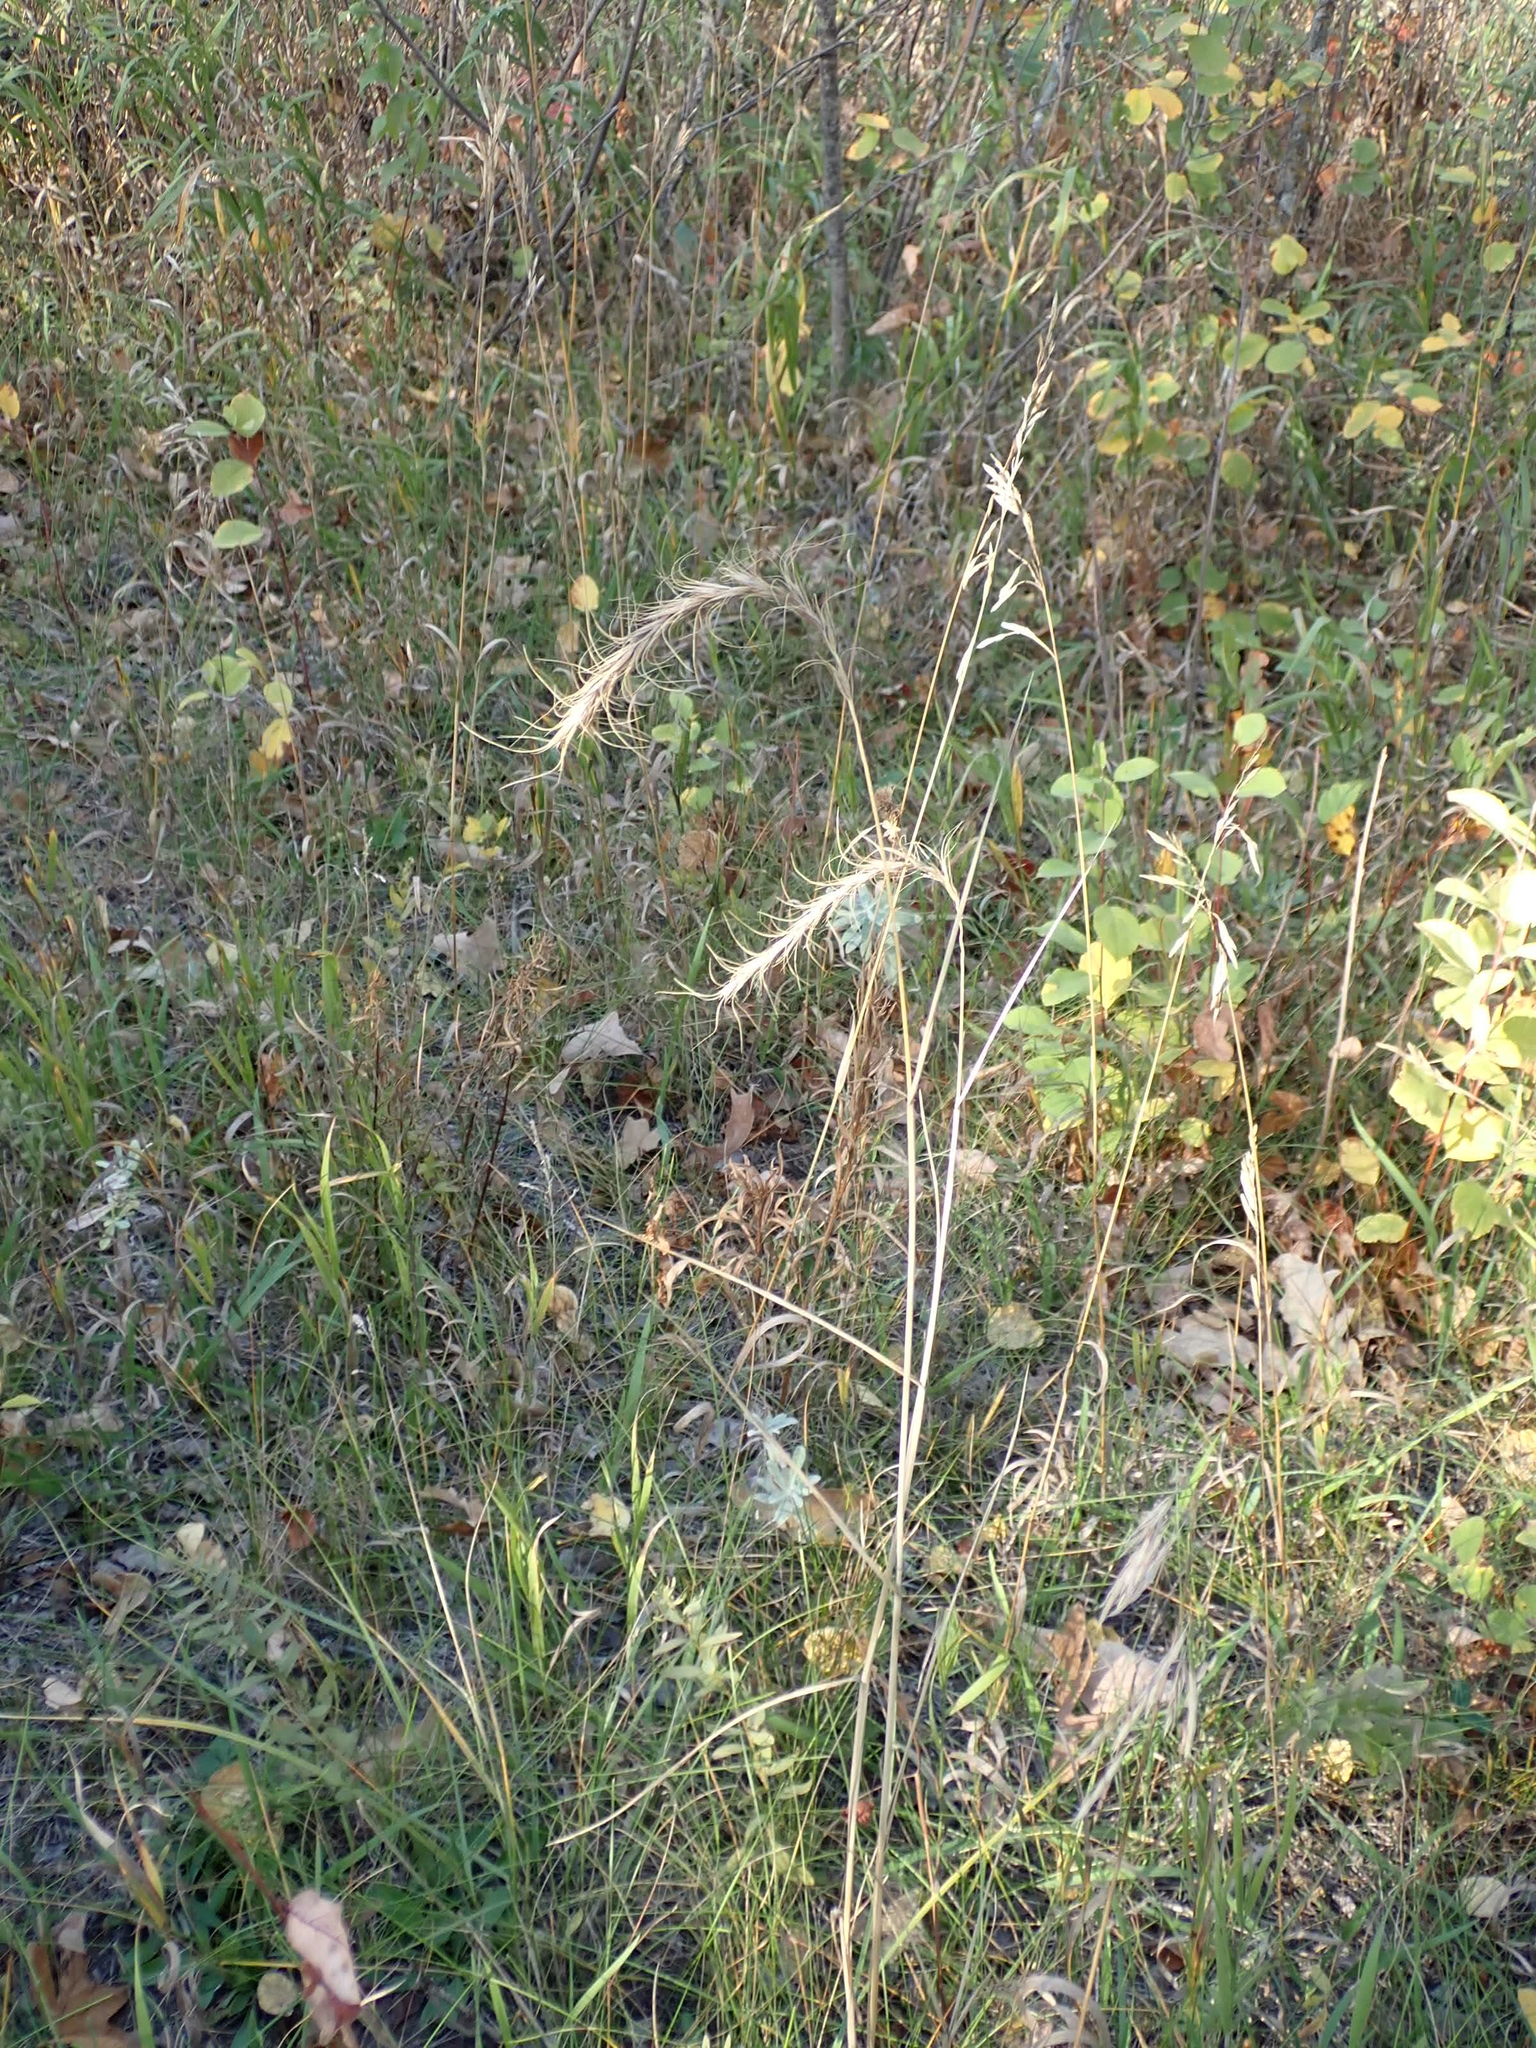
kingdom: Plantae
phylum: Tracheophyta
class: Liliopsida
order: Poales
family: Poaceae
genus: Elymus
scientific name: Elymus canadensis
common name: Canada wild rye
